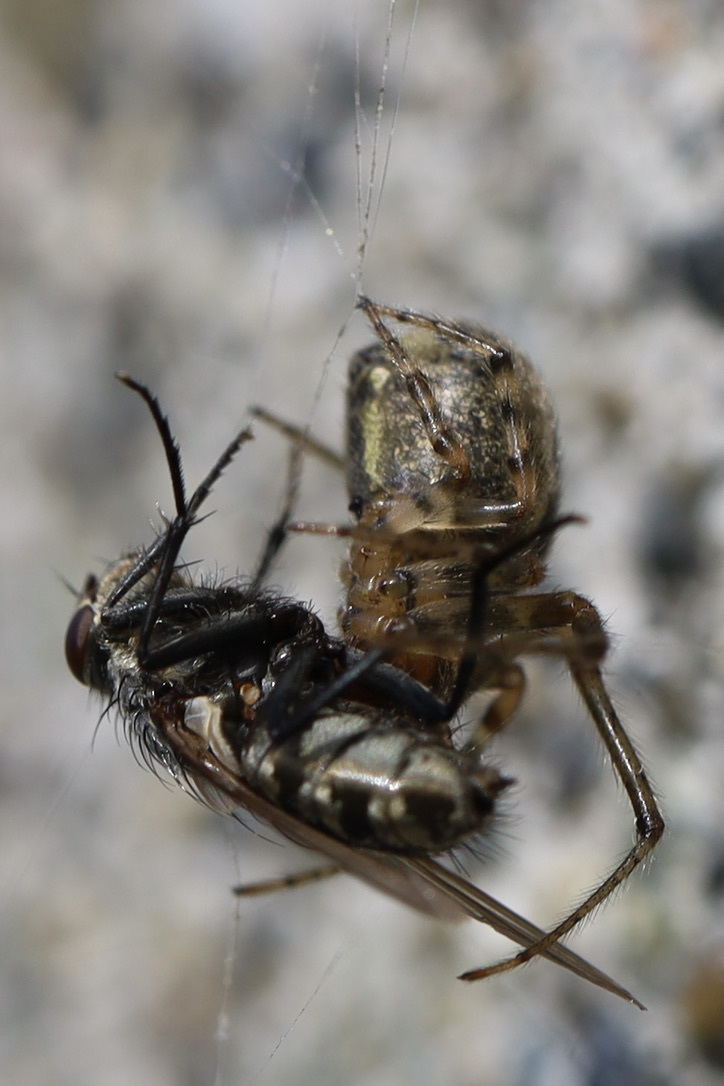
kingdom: Animalia
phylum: Arthropoda
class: Insecta
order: Diptera
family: Polleniidae
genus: Pollenia
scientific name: Pollenia
